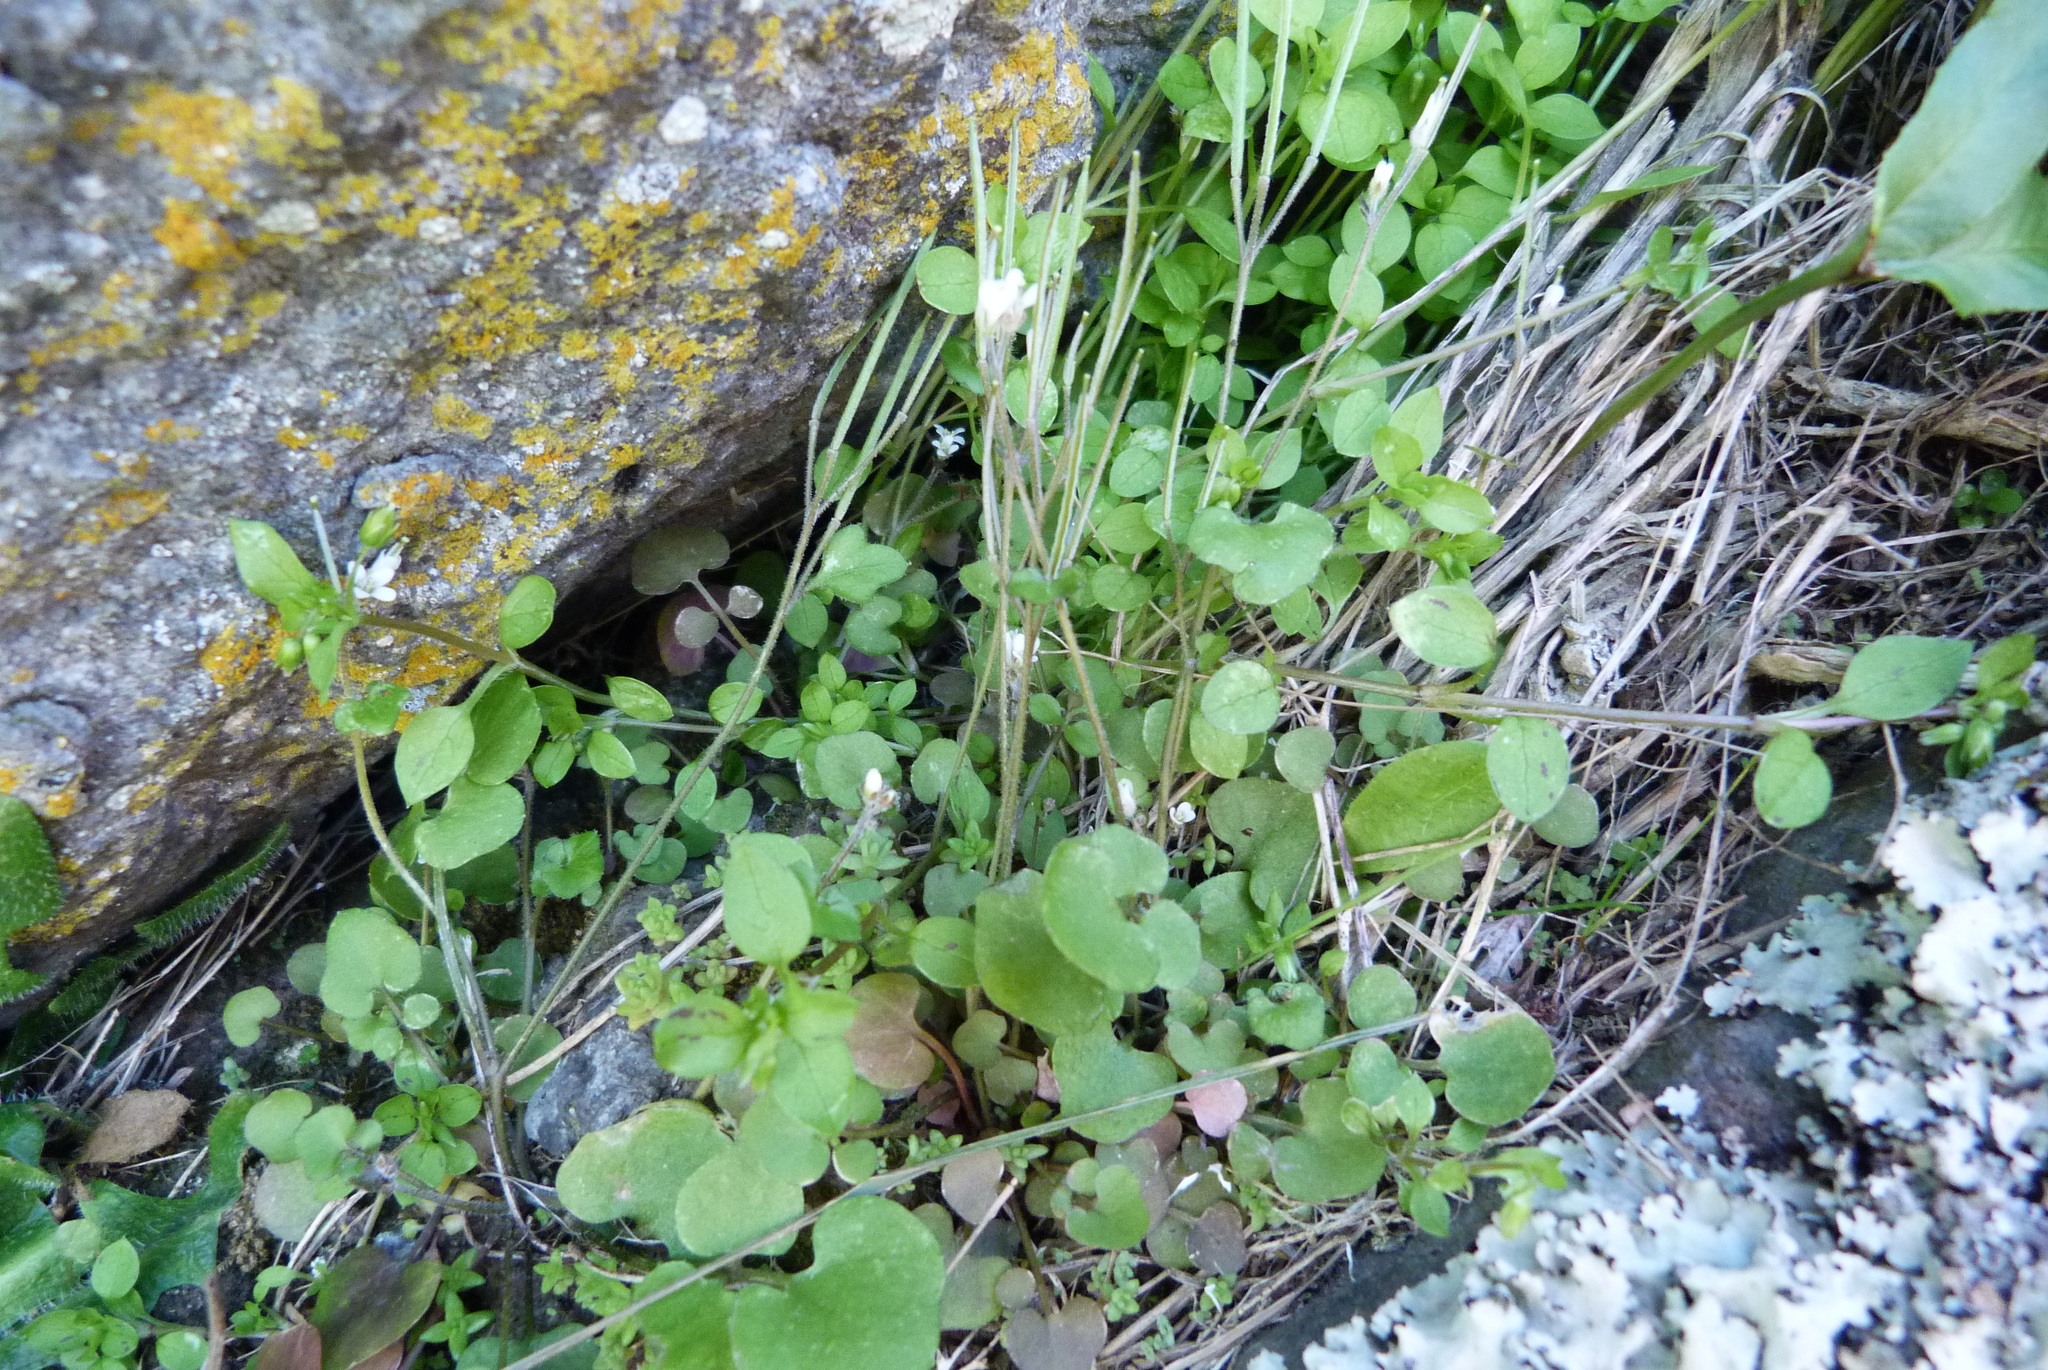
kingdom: Plantae
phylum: Tracheophyta
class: Magnoliopsida
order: Brassicales
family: Brassicaceae
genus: Cardamine
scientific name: Cardamine dolichostyla
